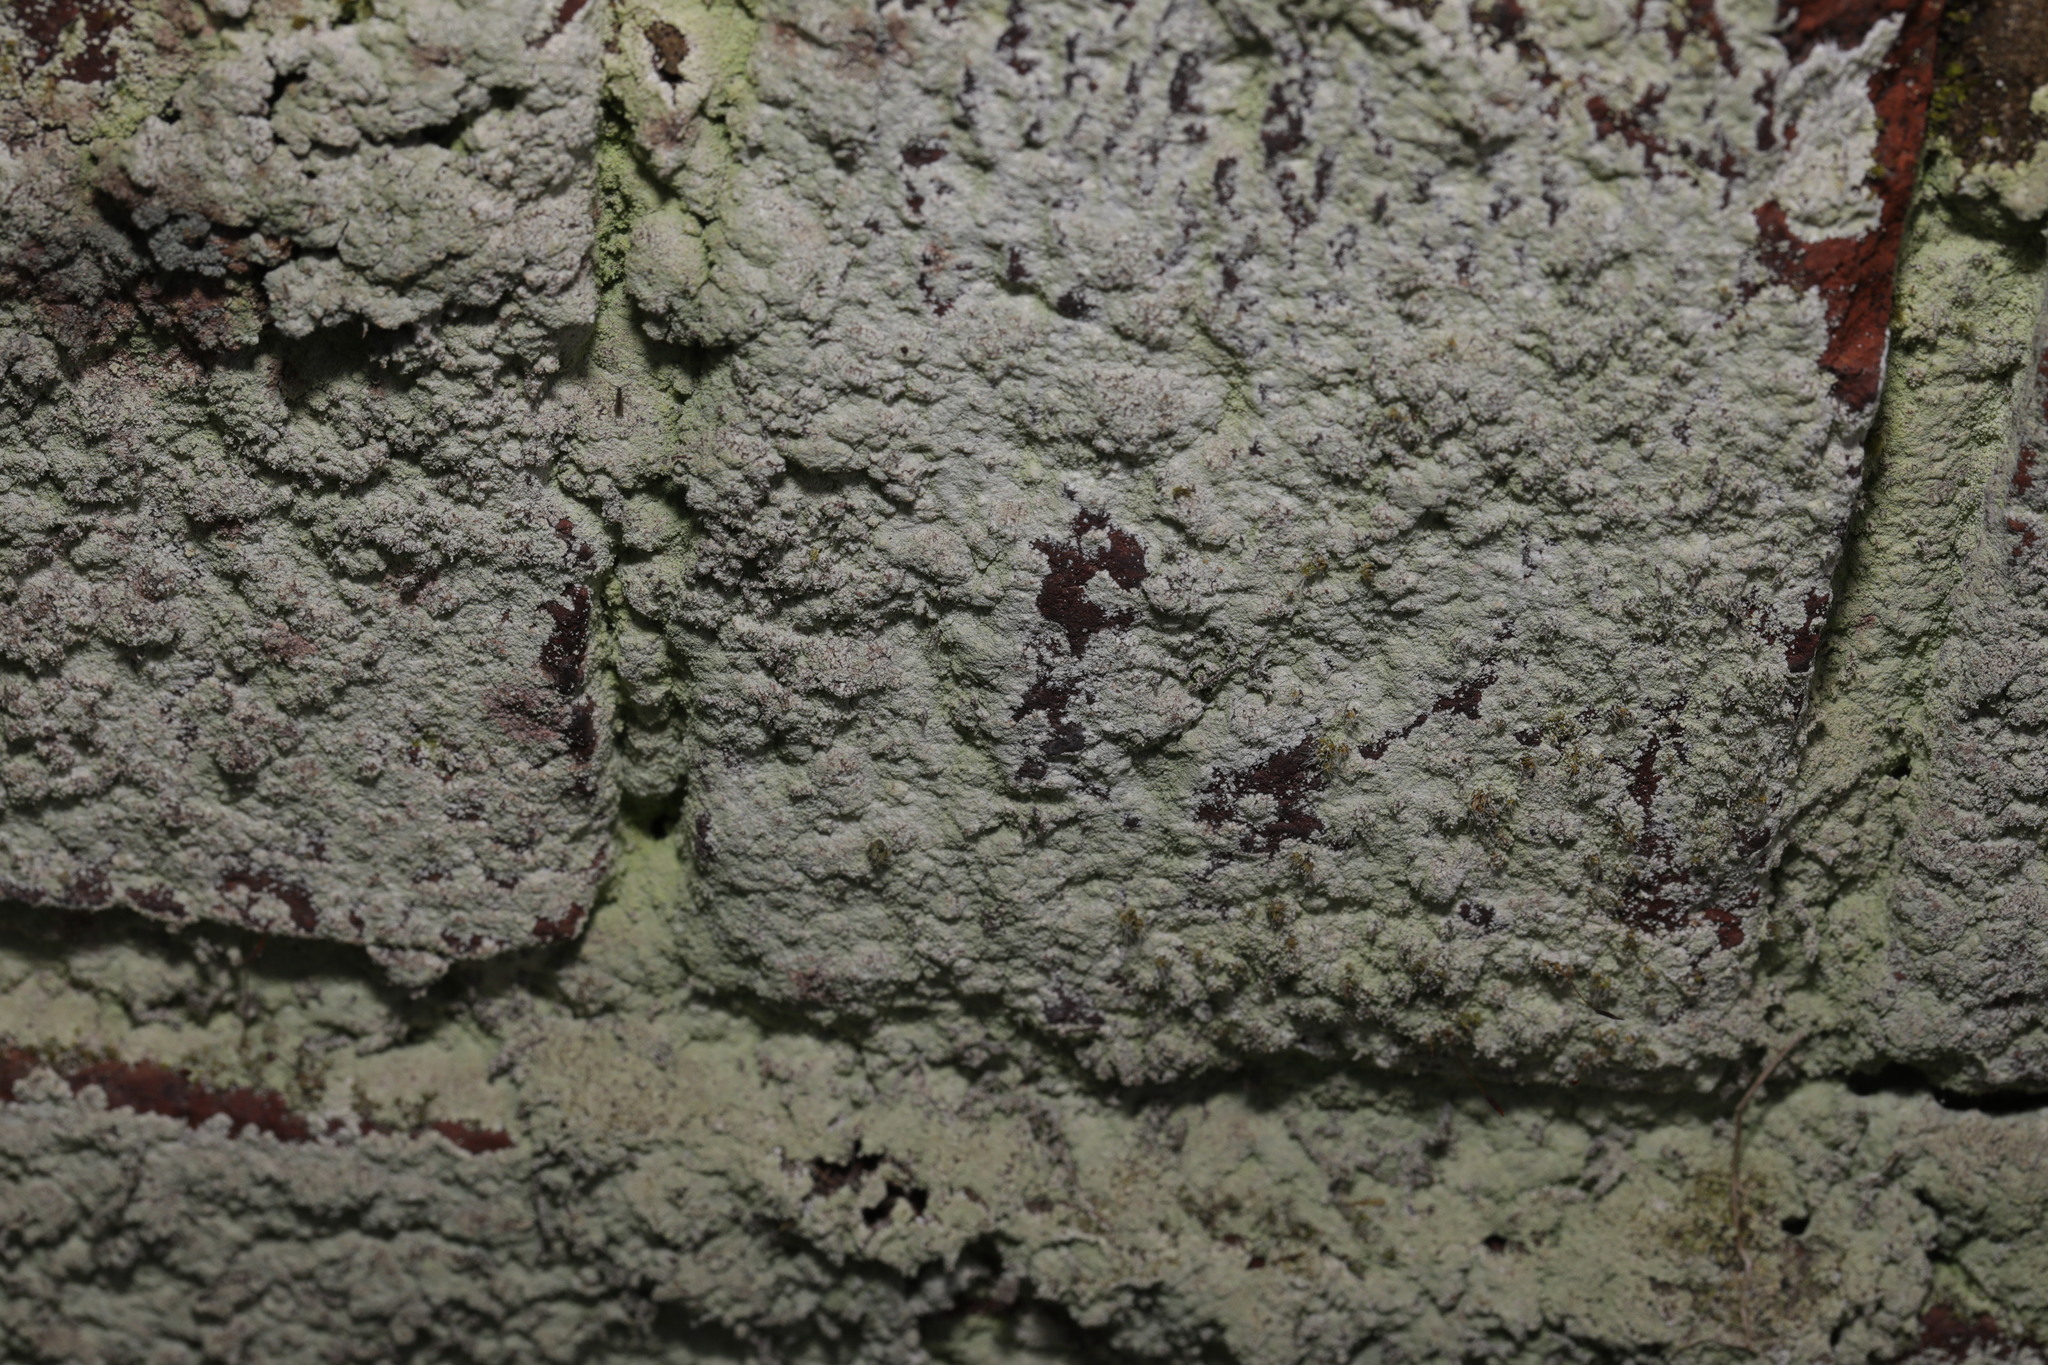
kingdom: Fungi
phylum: Ascomycota
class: Lecanoromycetes
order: Lecanorales
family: Stereocaulaceae
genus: Lepraria
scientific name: Lepraria
